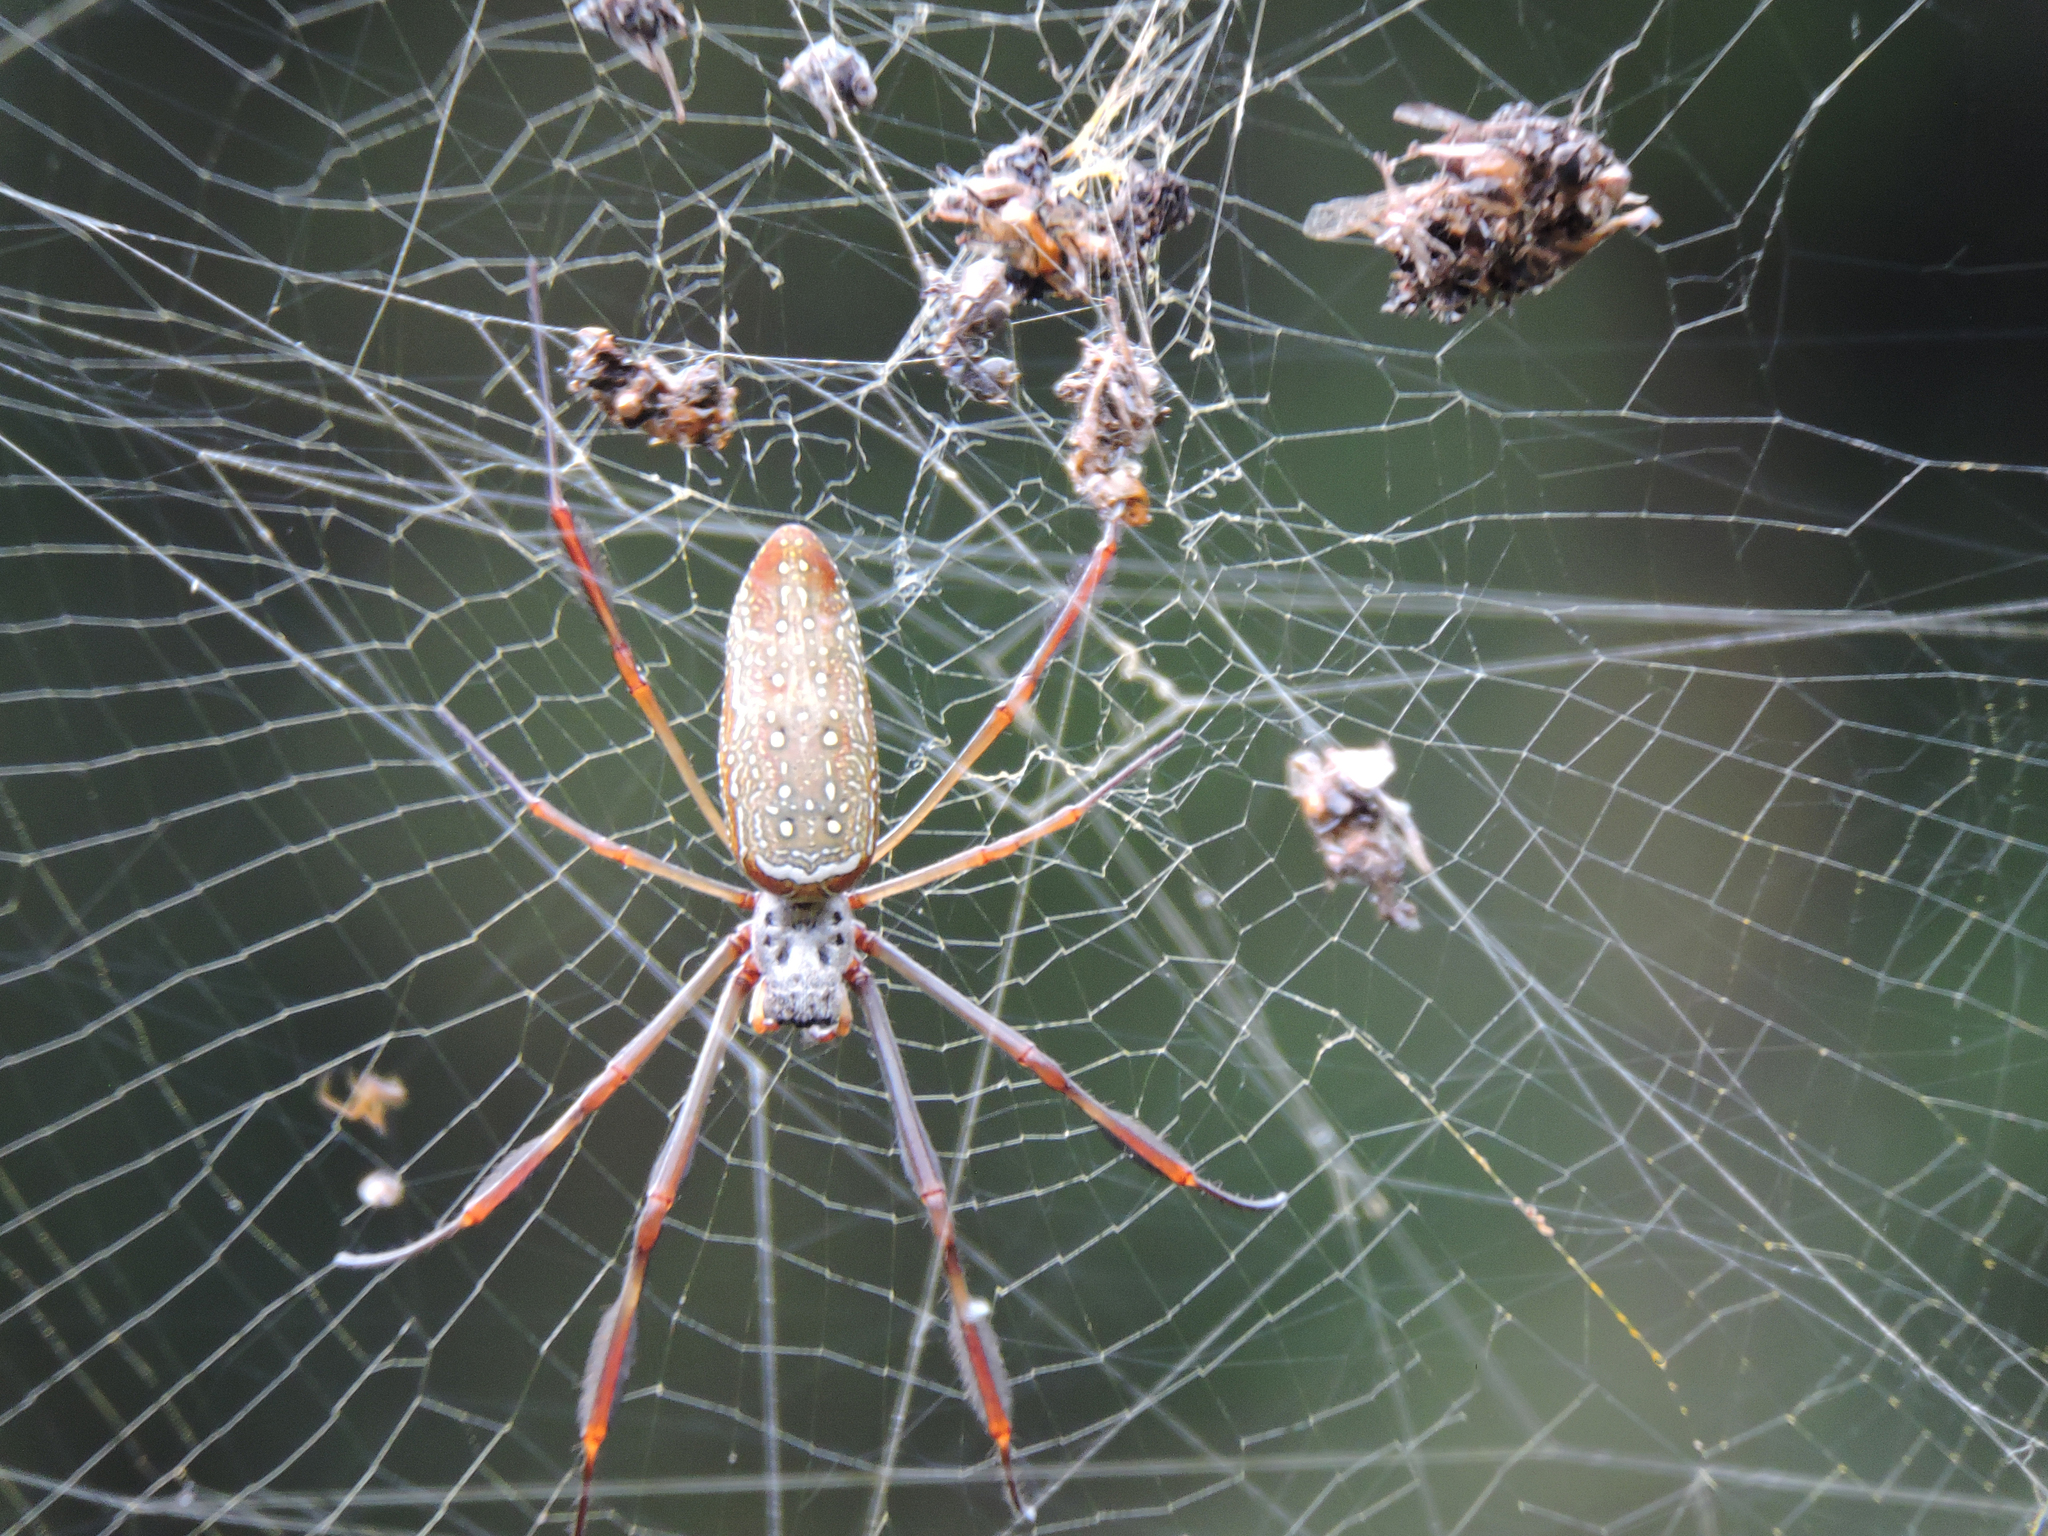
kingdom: Animalia
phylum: Arthropoda
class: Arachnida
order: Araneae
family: Araneidae
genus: Trichonephila
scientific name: Trichonephila clavipes
